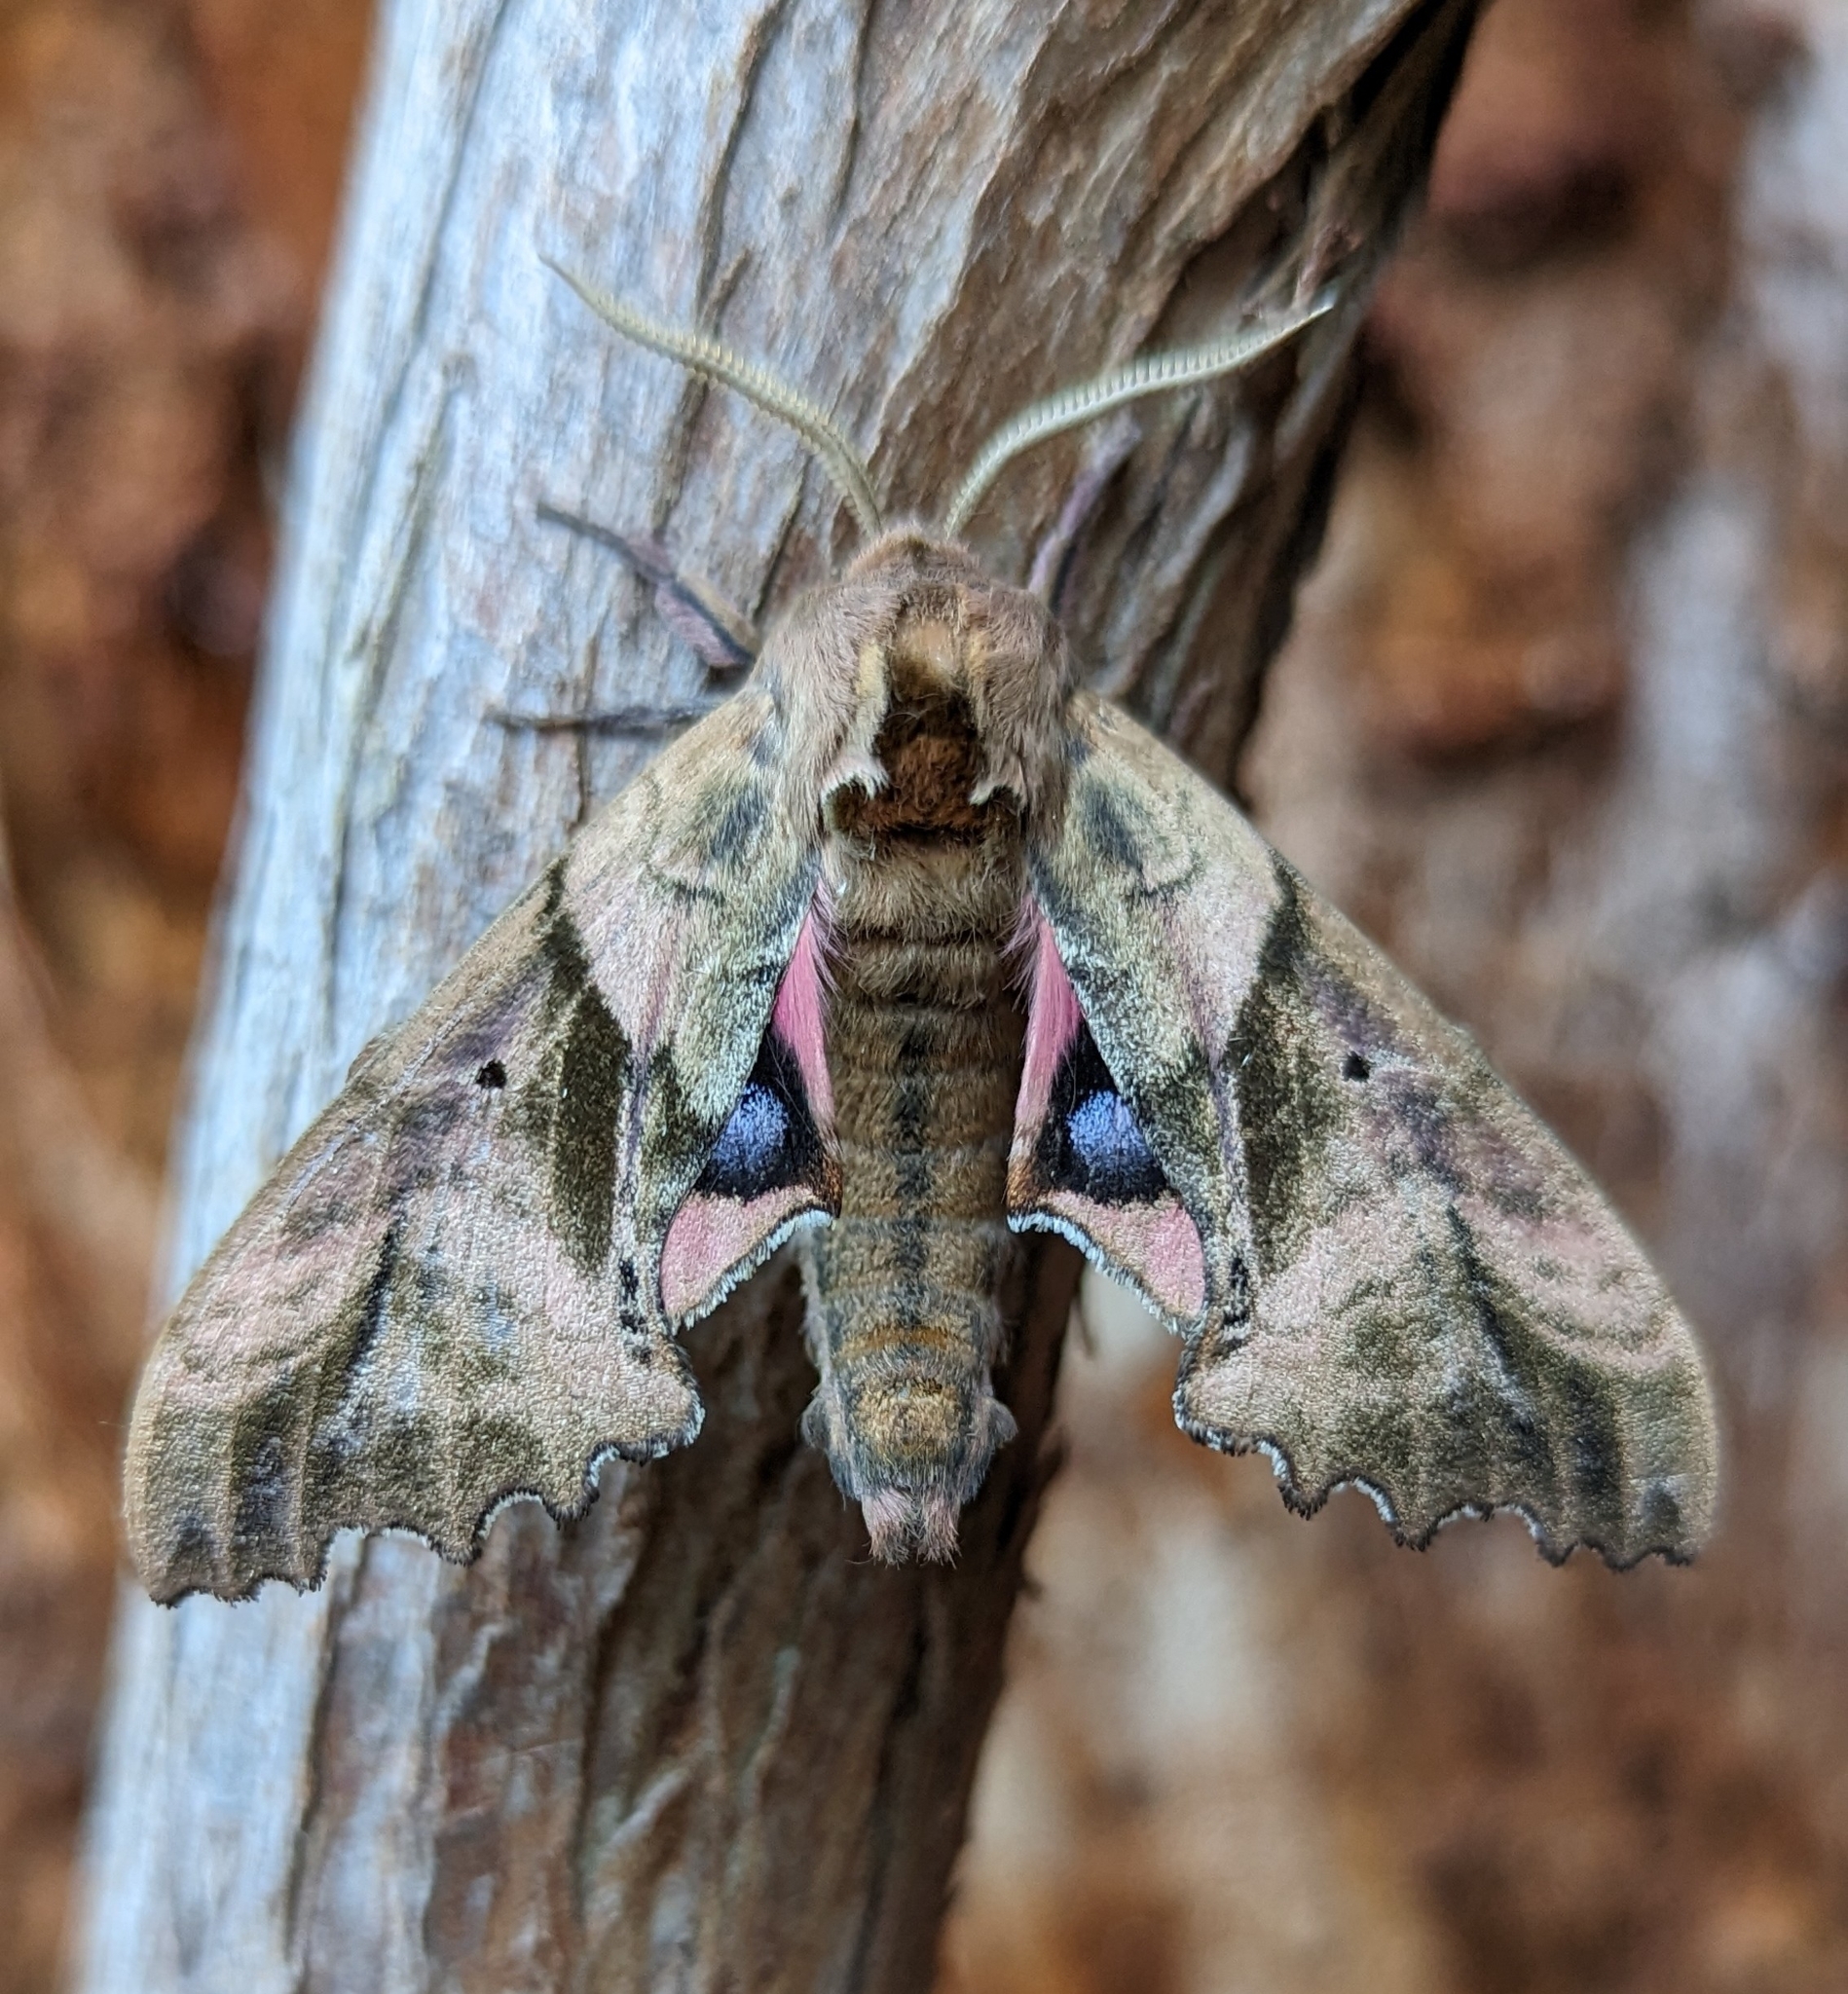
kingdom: Animalia
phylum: Arthropoda
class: Insecta
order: Lepidoptera
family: Sphingidae
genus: Paonias
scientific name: Paonias excaecata
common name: Blind-eyed sphinx
